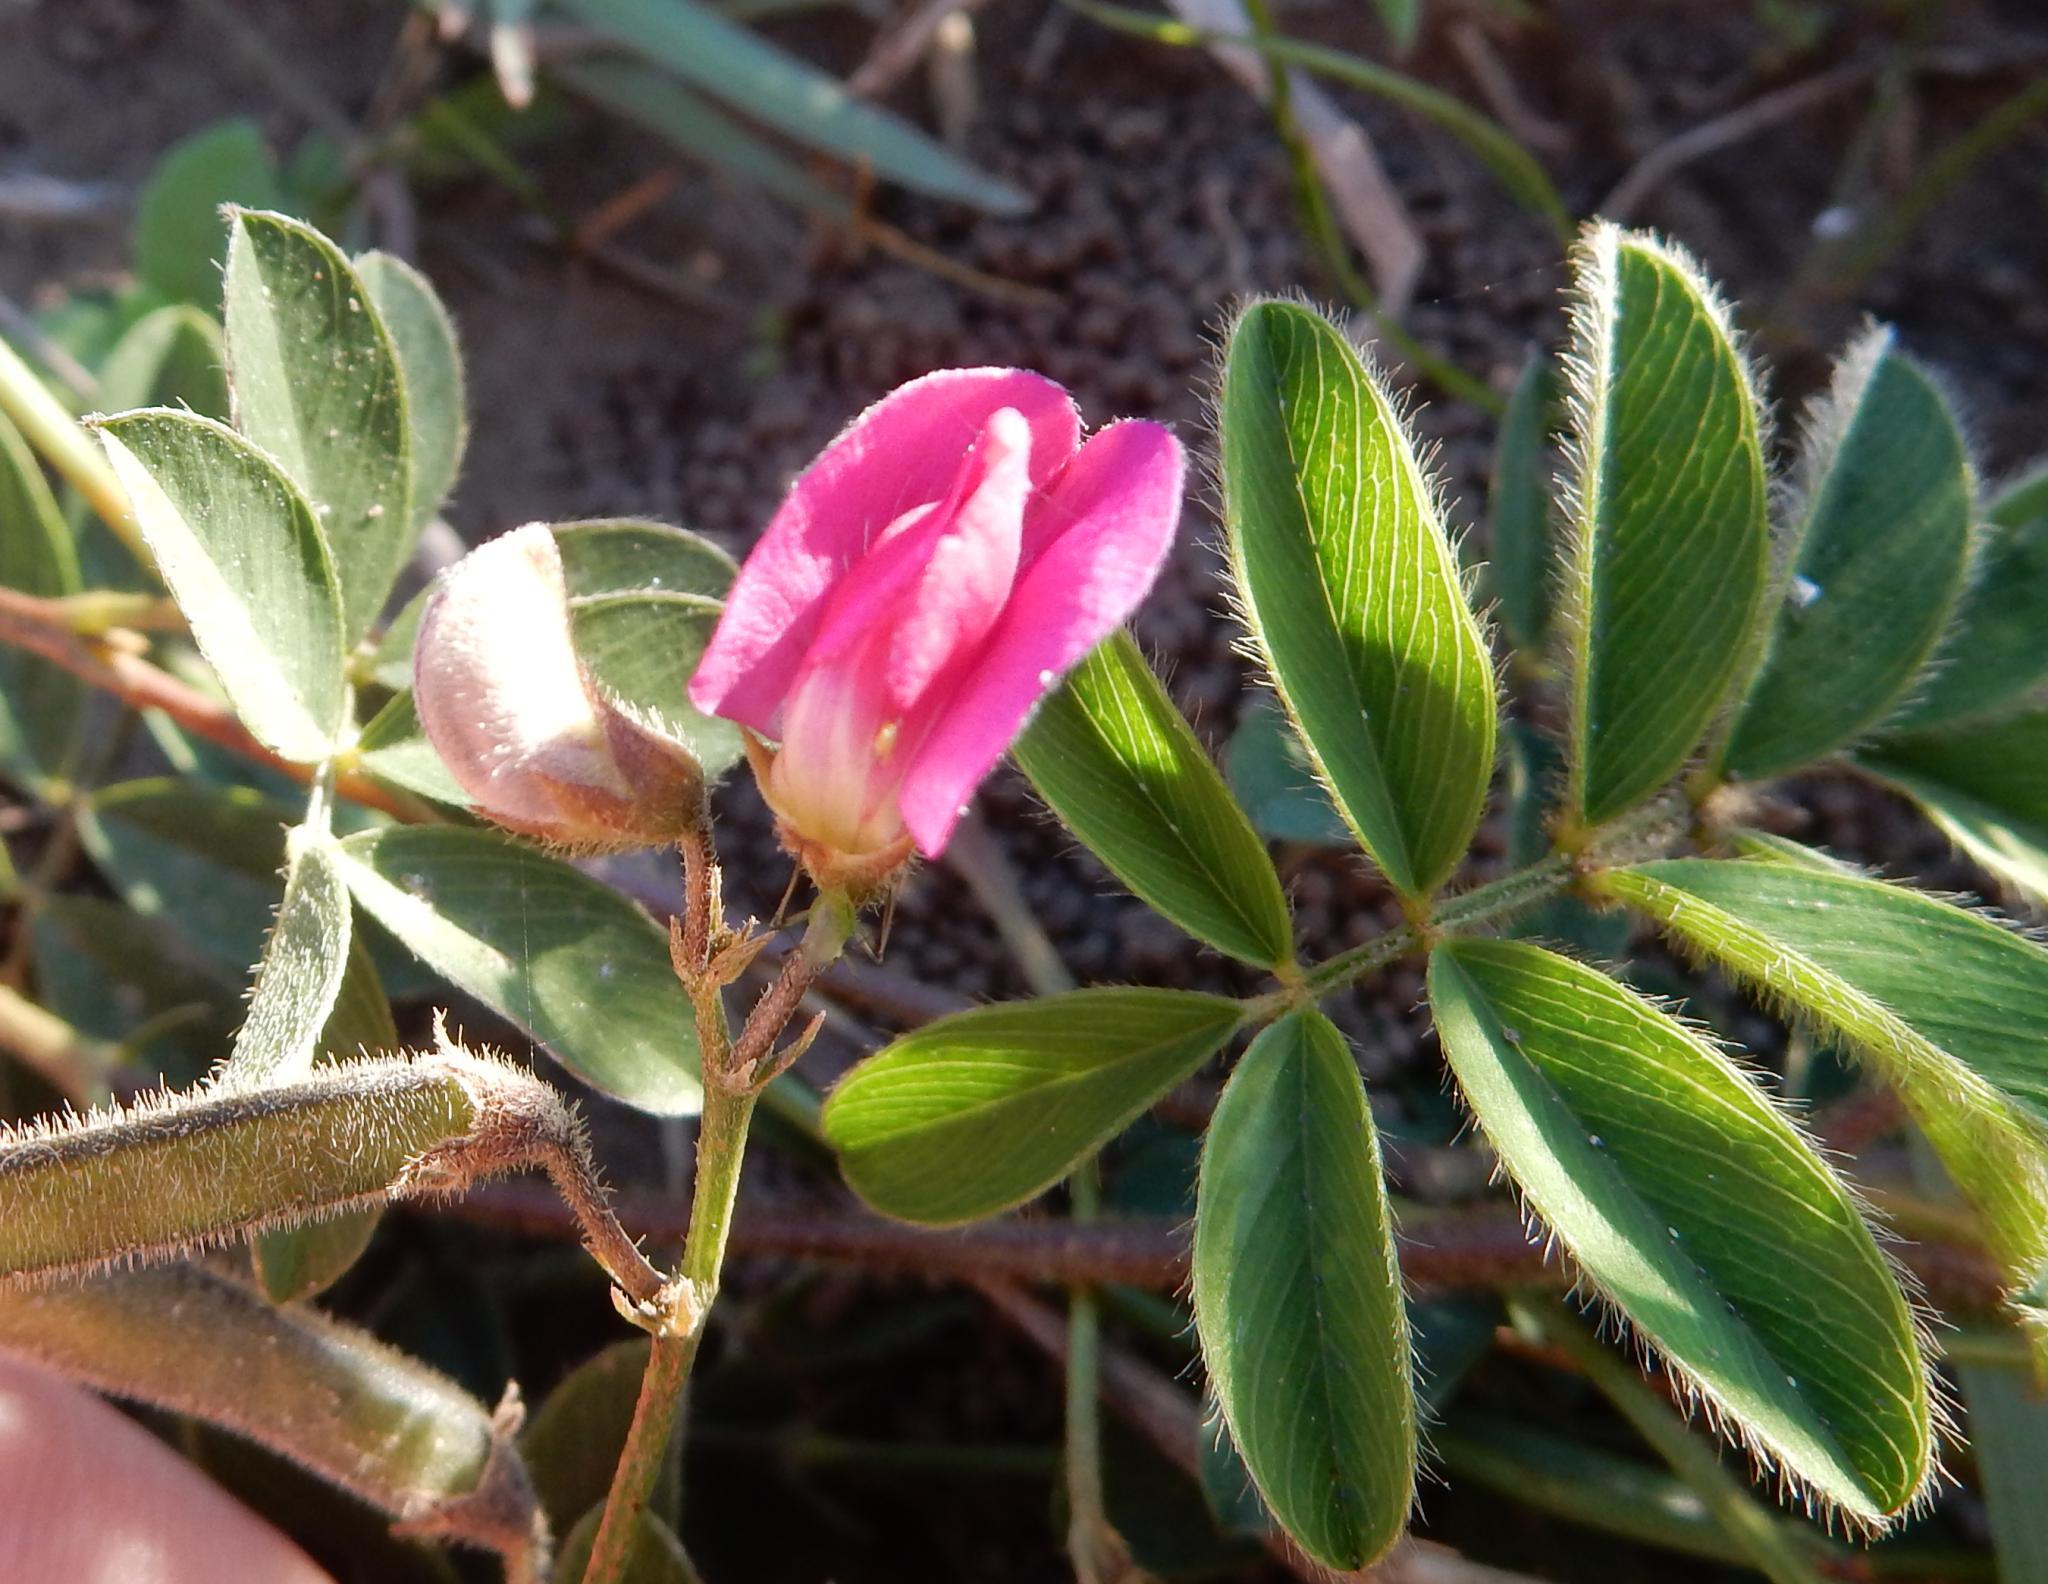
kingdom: Plantae
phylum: Tracheophyta
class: Magnoliopsida
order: Fabales
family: Fabaceae
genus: Tephrosia
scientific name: Tephrosia capensis
